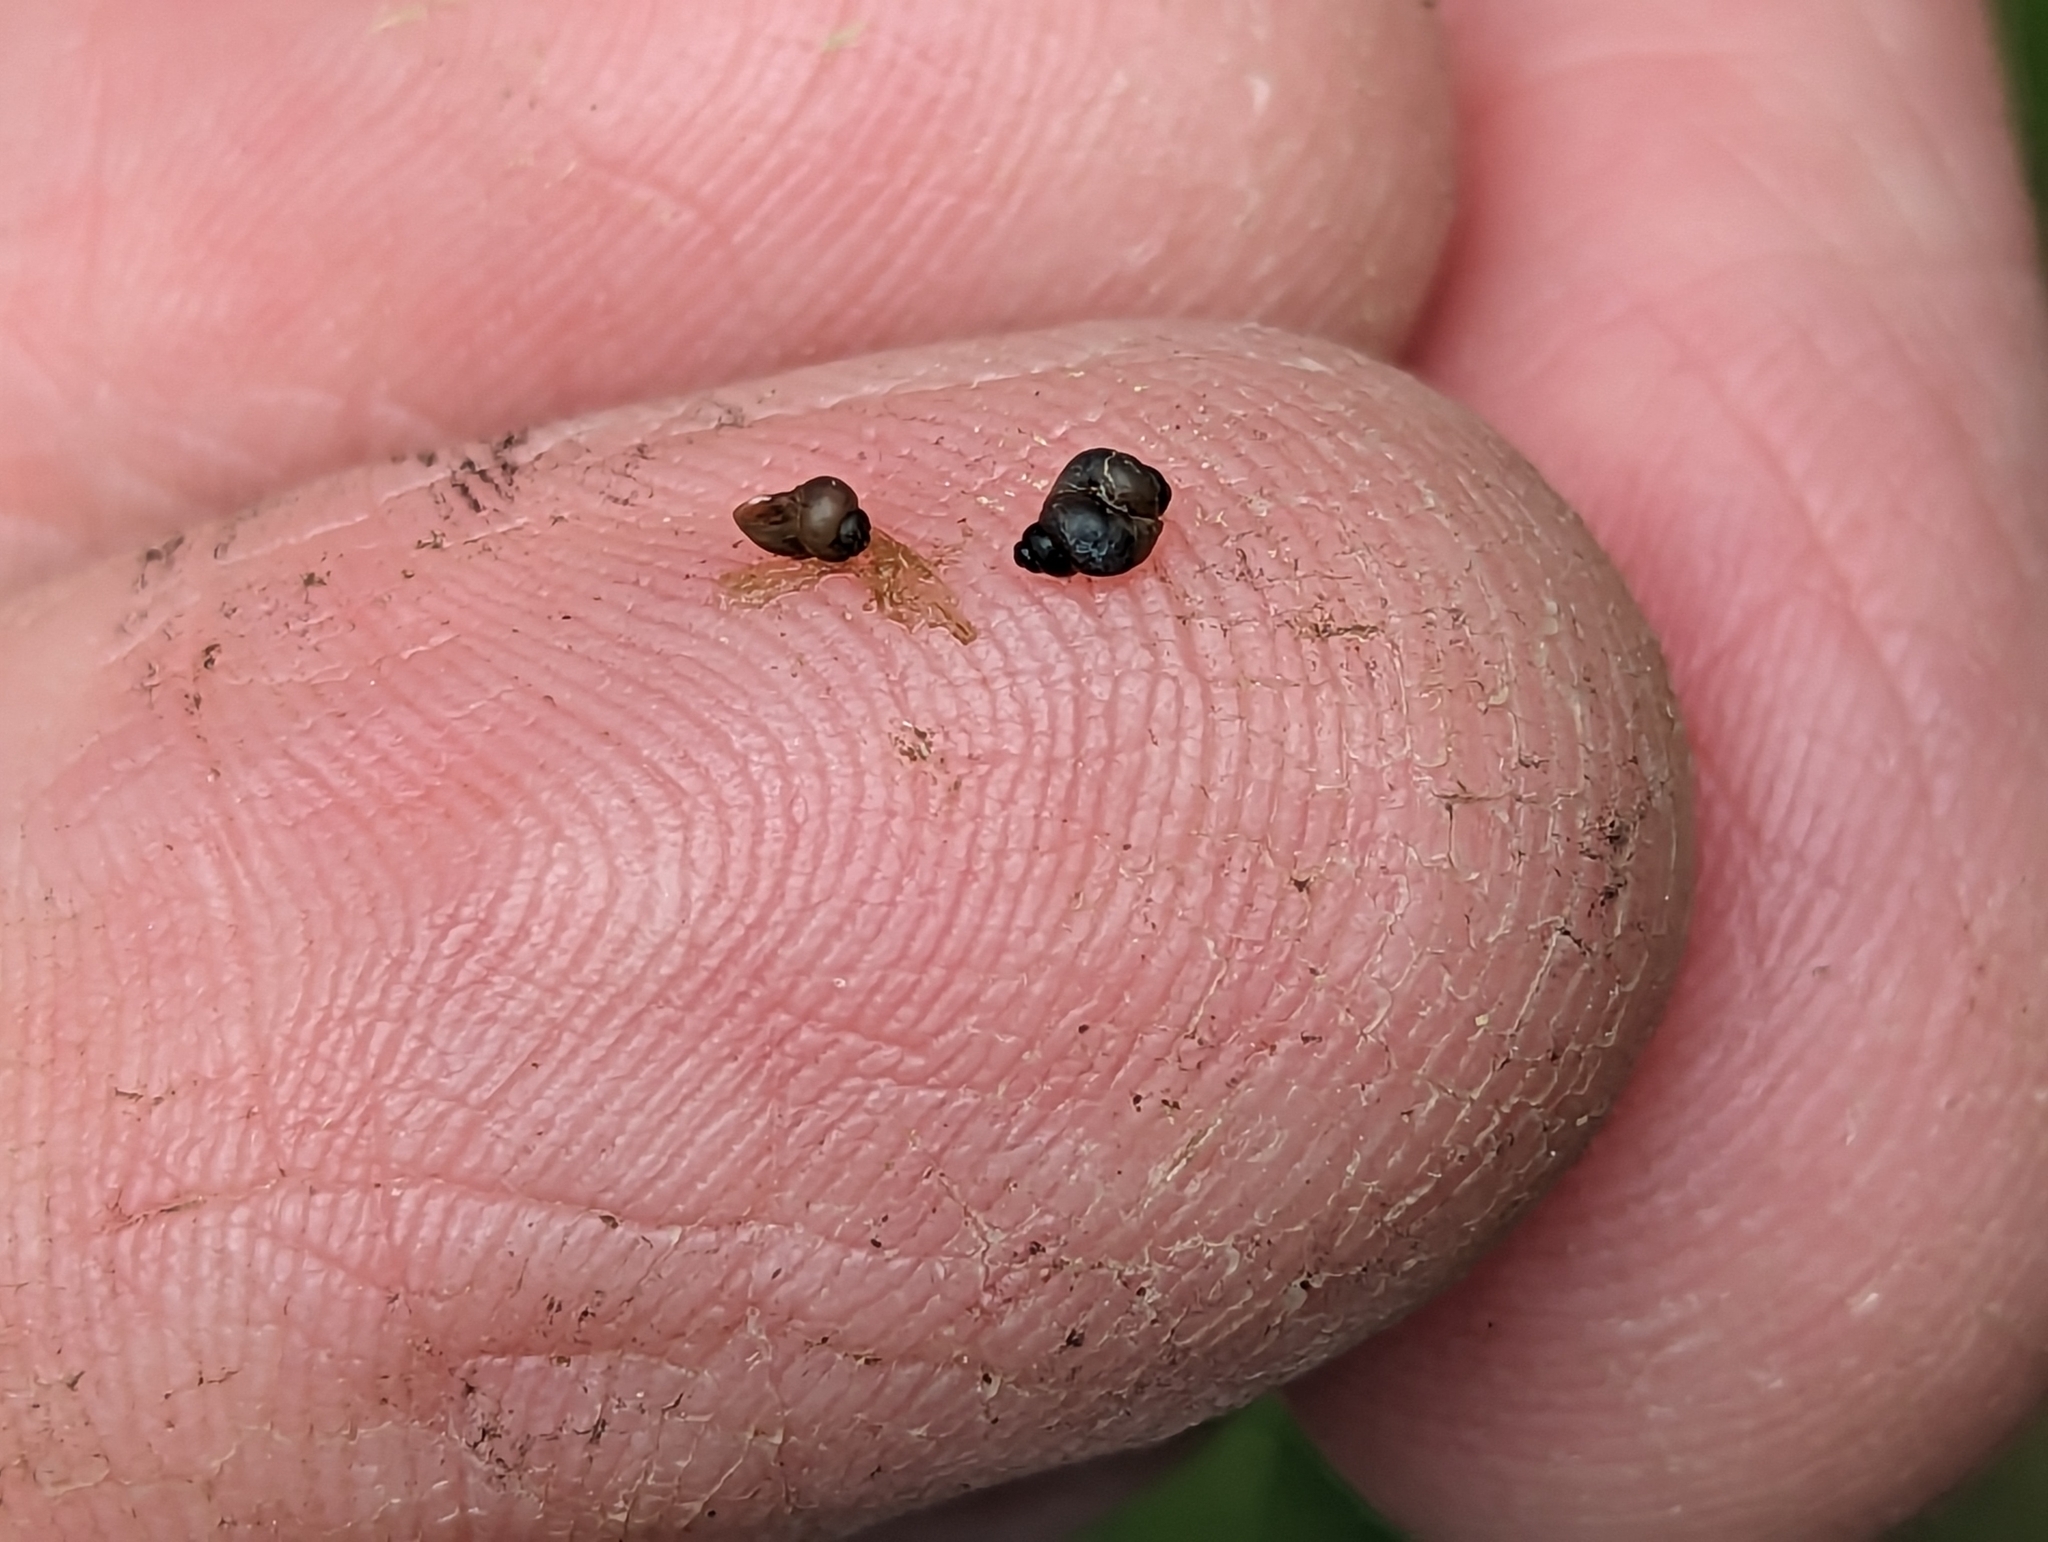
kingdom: Animalia
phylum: Mollusca
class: Gastropoda
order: Littorinimorpha
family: Hydrobiidae
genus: Pyrgulopsis
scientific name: Pyrgulopsis glandulosa
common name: Verde rim springsnail
